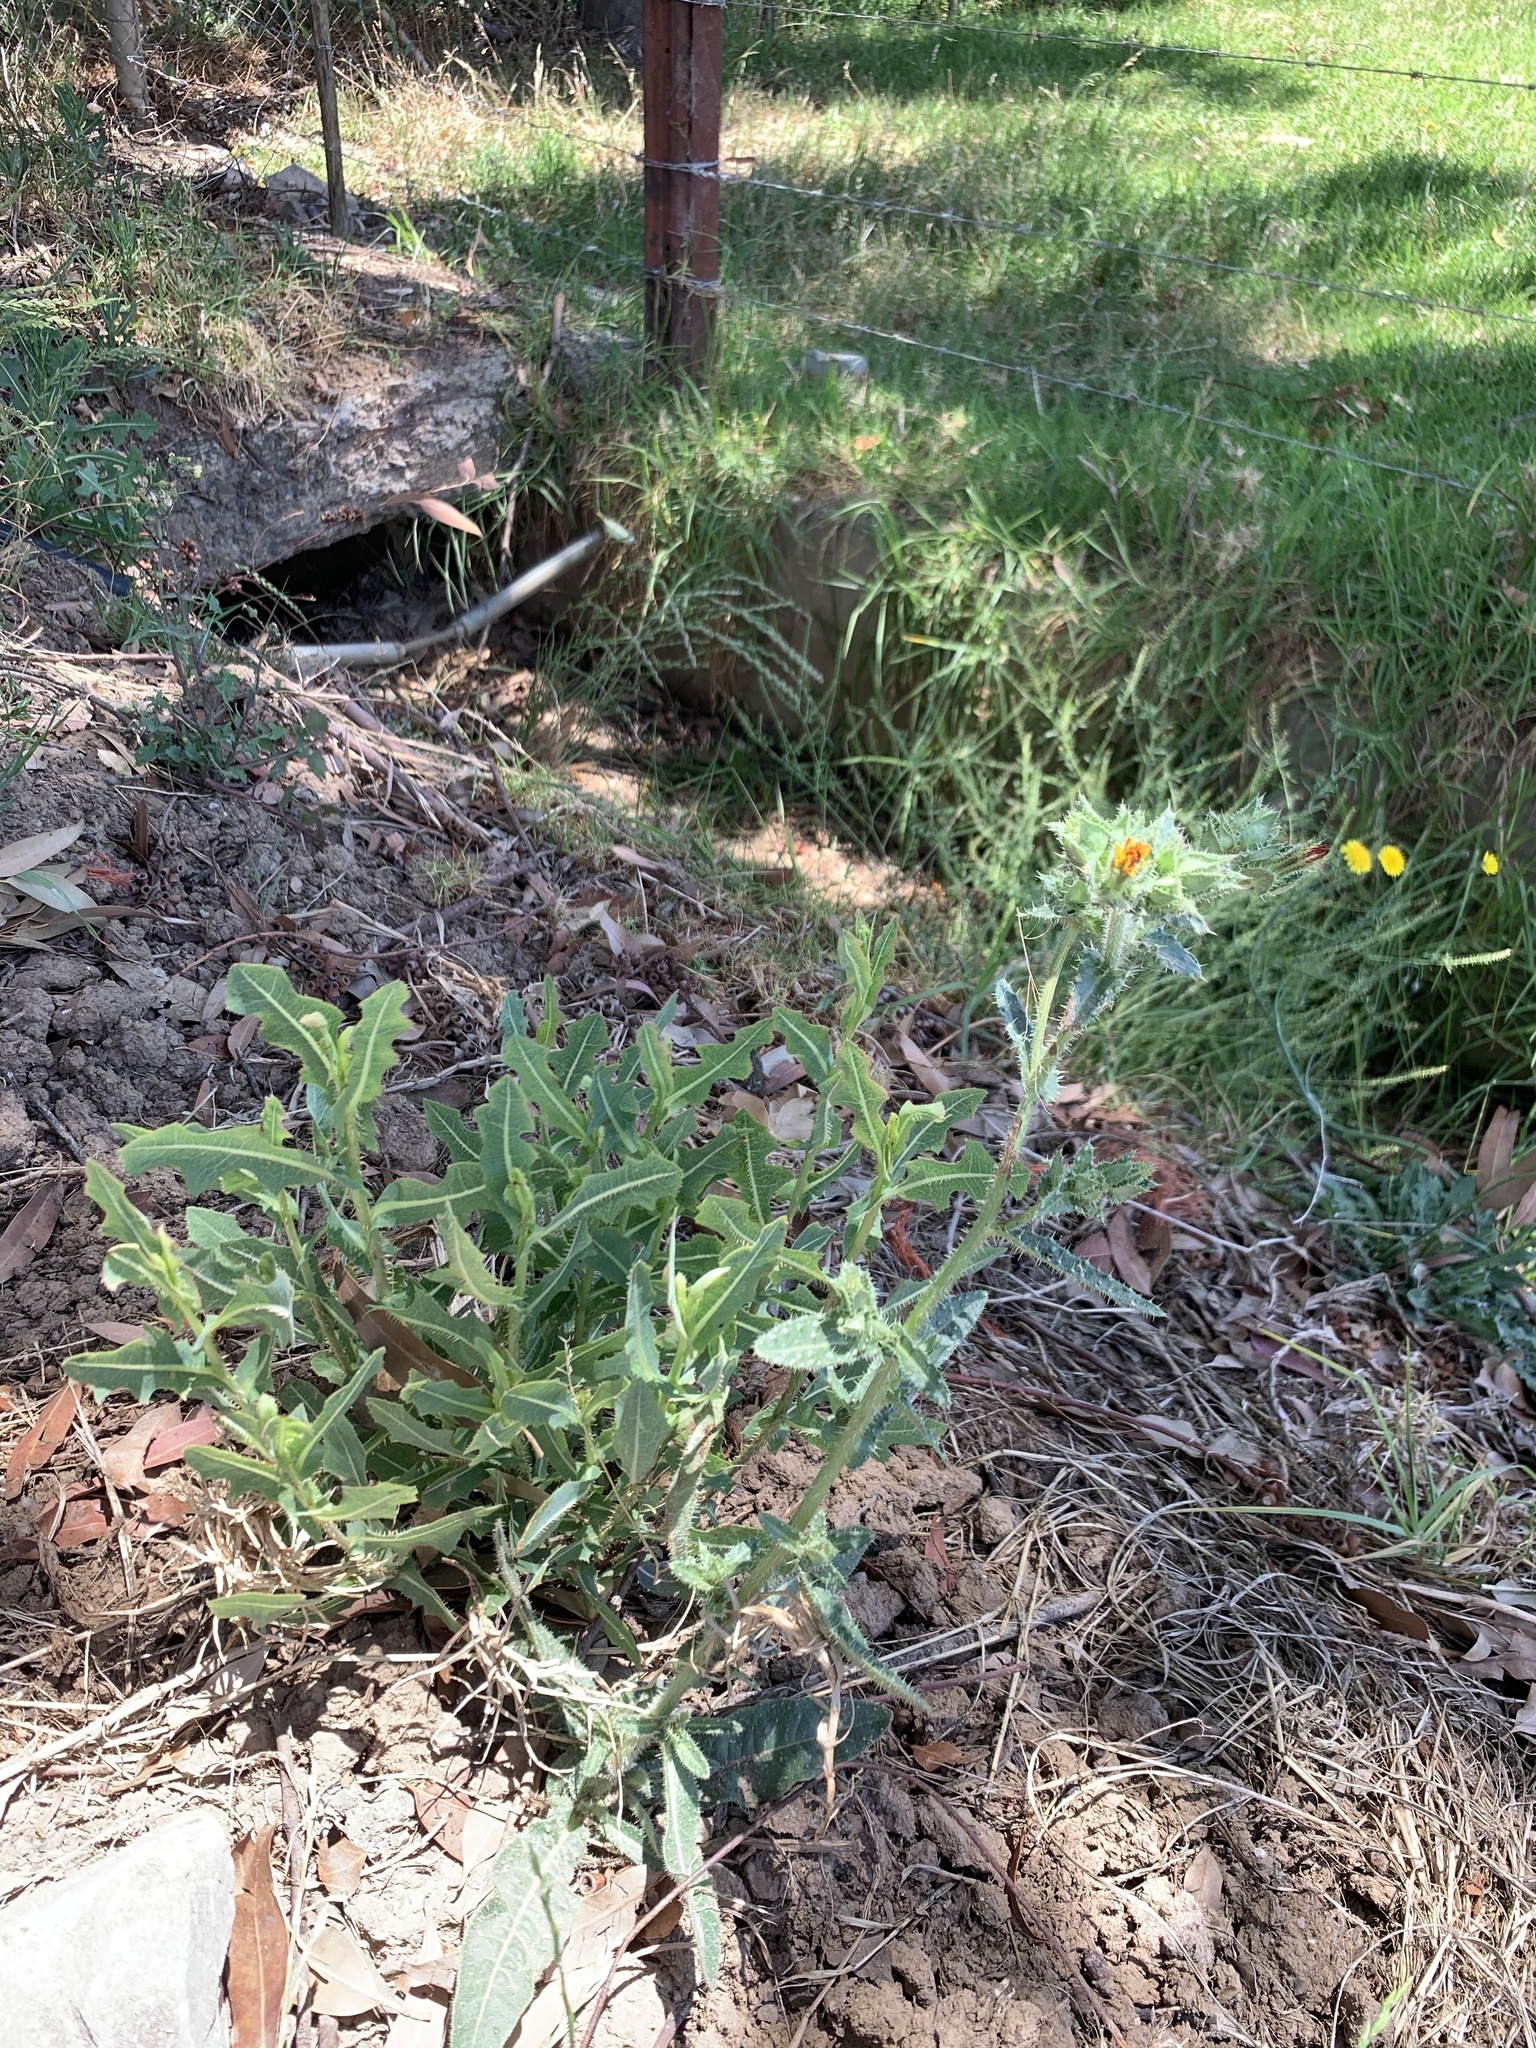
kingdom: Plantae
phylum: Tracheophyta
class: Magnoliopsida
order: Asterales
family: Asteraceae
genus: Helminthotheca
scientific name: Helminthotheca echioides
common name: Ox-tongue
